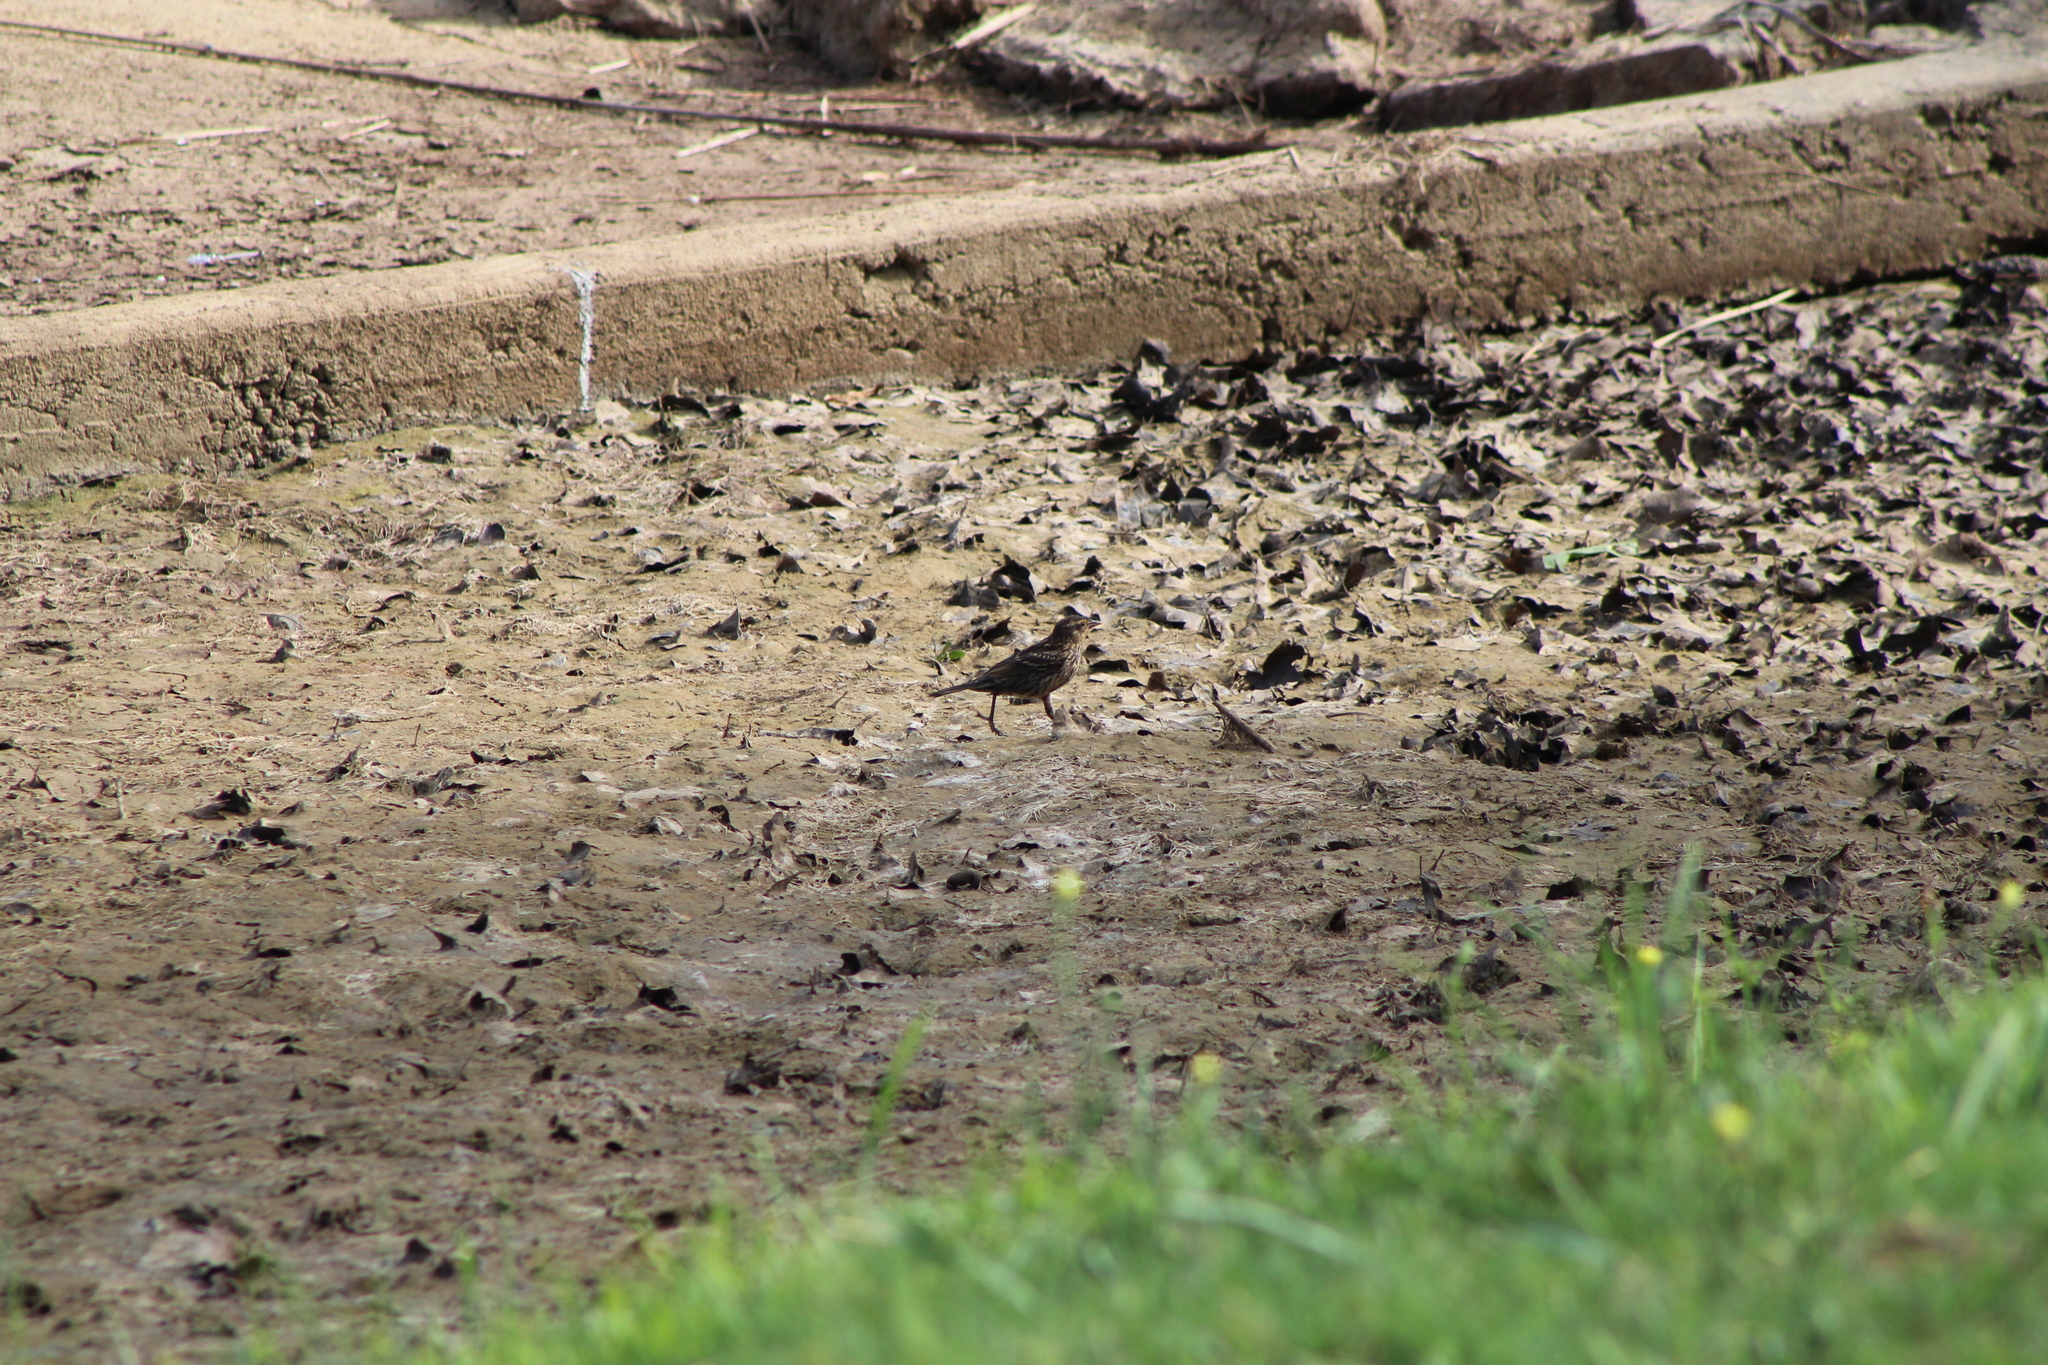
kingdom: Animalia
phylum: Chordata
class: Aves
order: Passeriformes
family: Icteridae
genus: Agelaius
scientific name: Agelaius phoeniceus
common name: Red-winged blackbird
